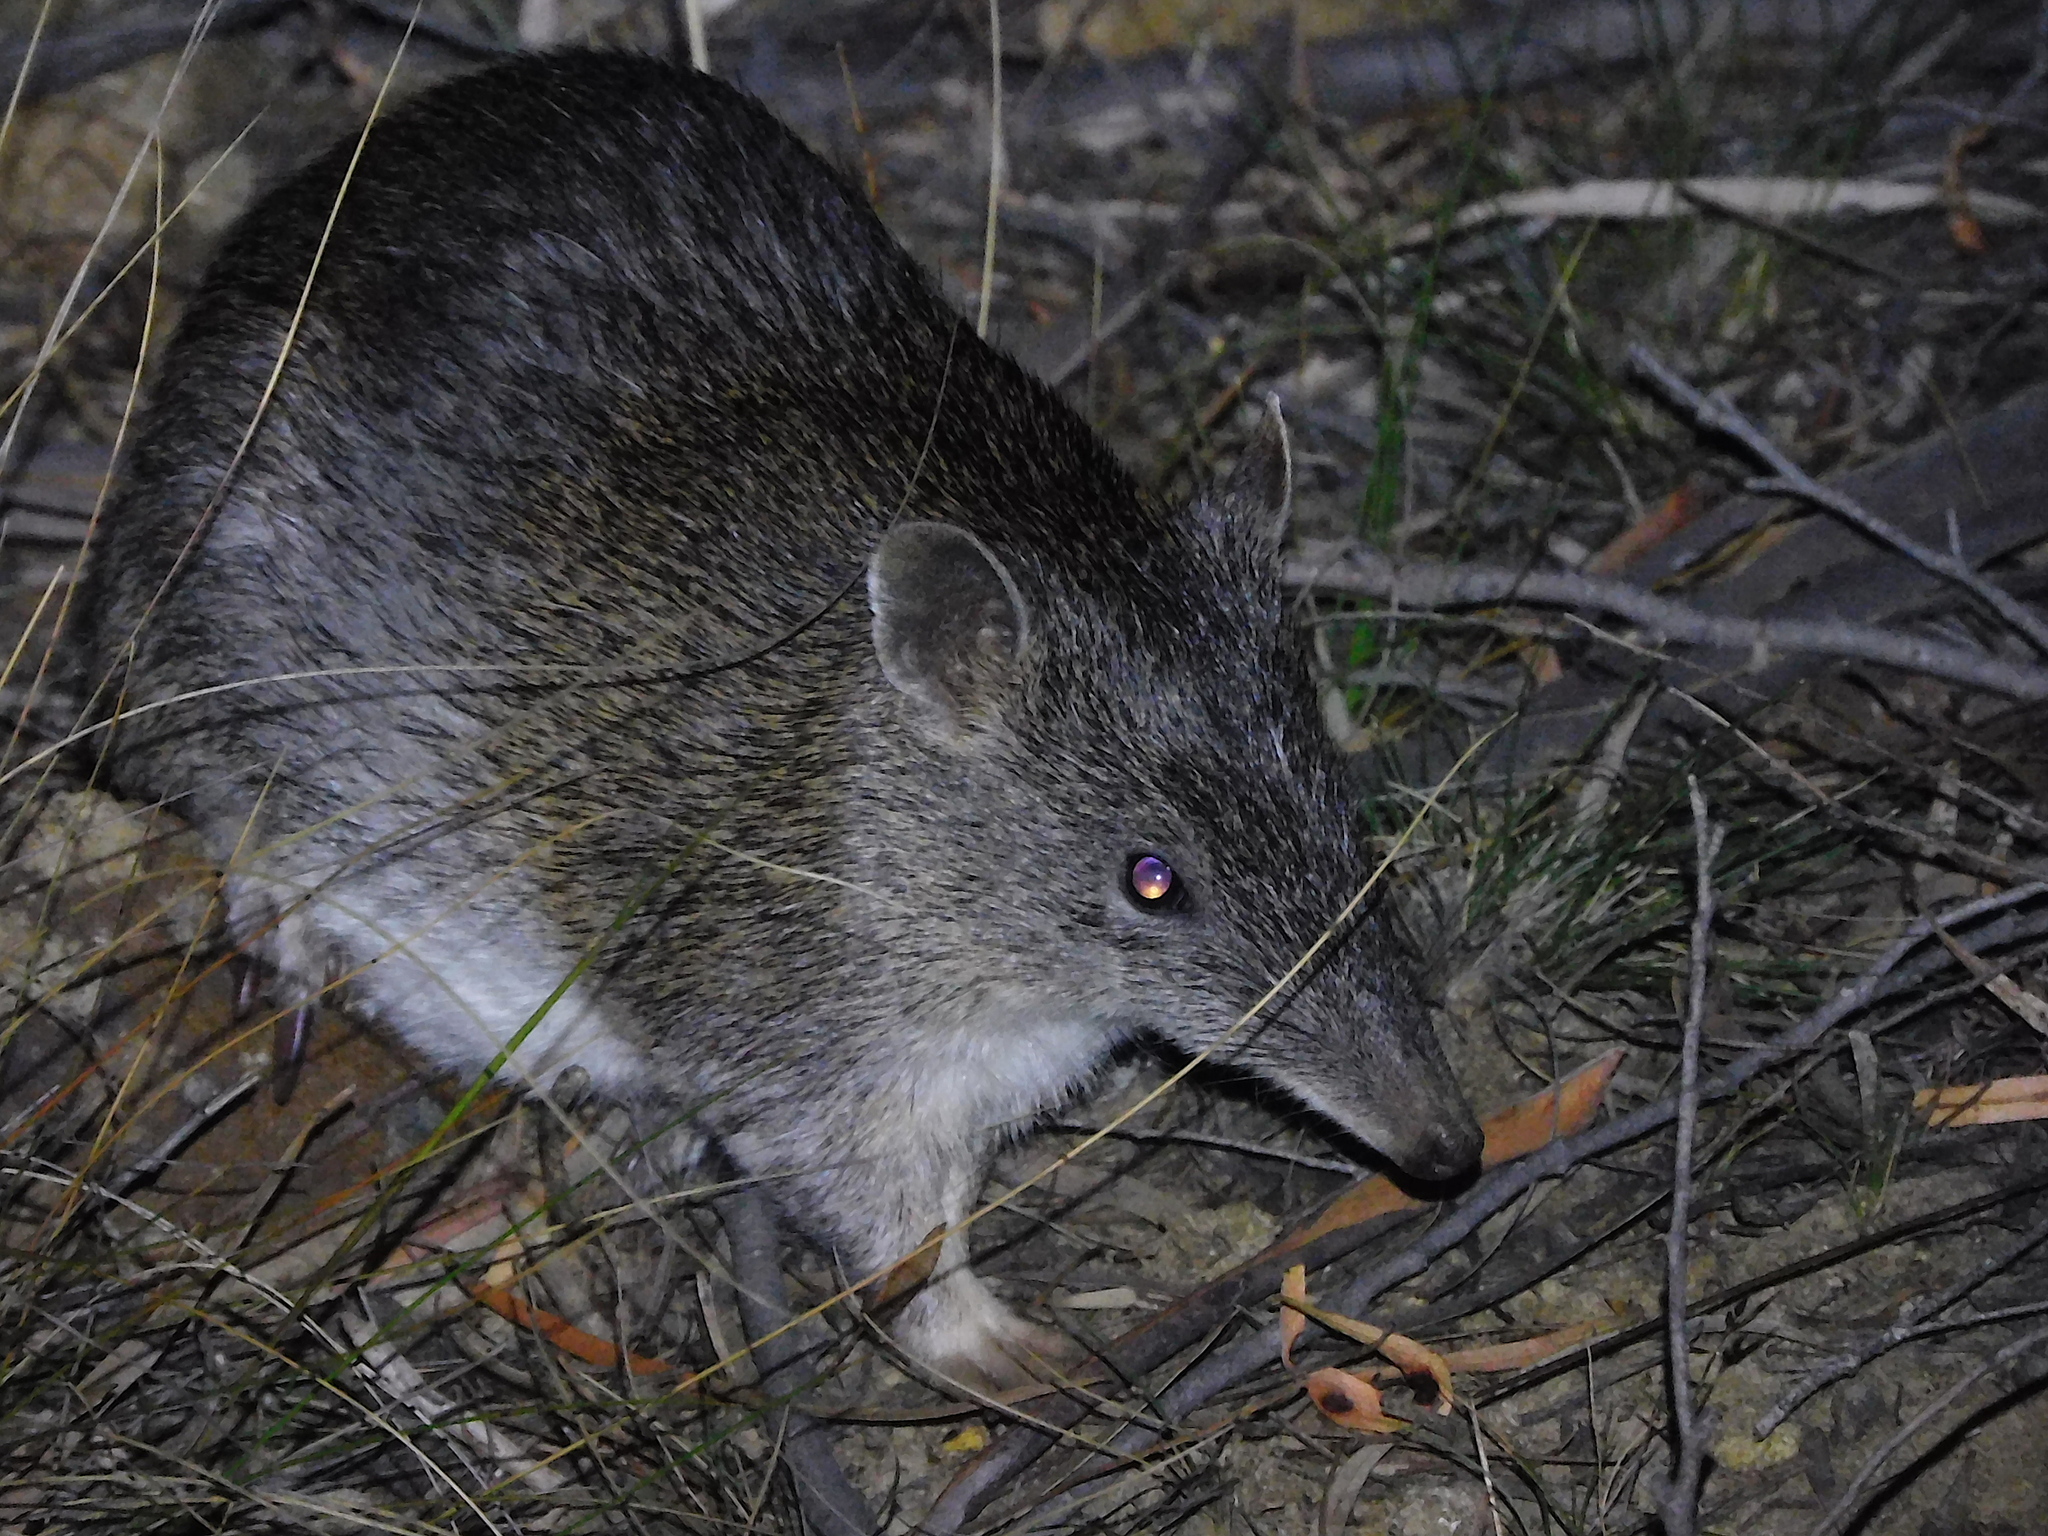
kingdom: Animalia
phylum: Chordata
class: Mammalia
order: Peramelemorphia
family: Peramelidae
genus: Isoodon
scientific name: Isoodon obesulus
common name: Southern brown bandicoot
